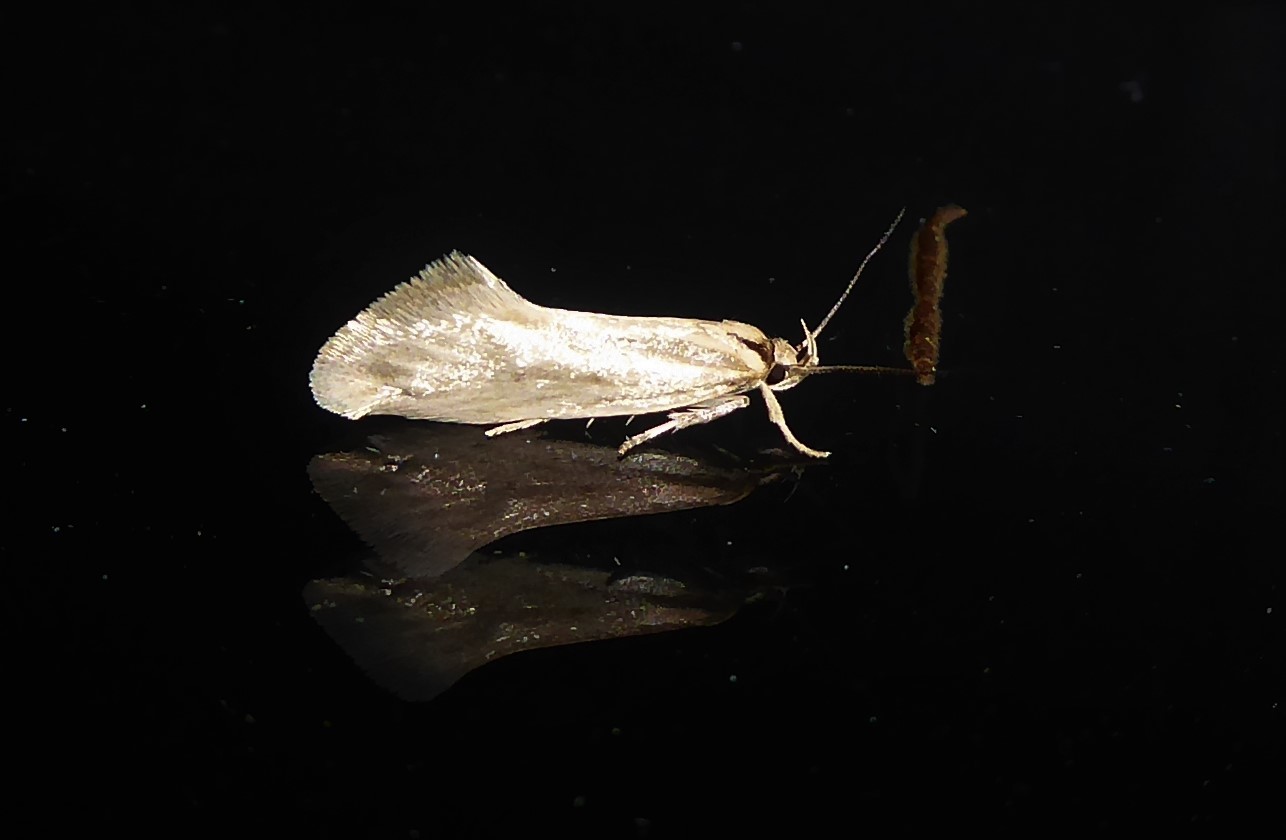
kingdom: Animalia
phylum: Arthropoda
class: Insecta
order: Lepidoptera
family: Oecophoridae
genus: Tingena
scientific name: Tingena chloradelpha
